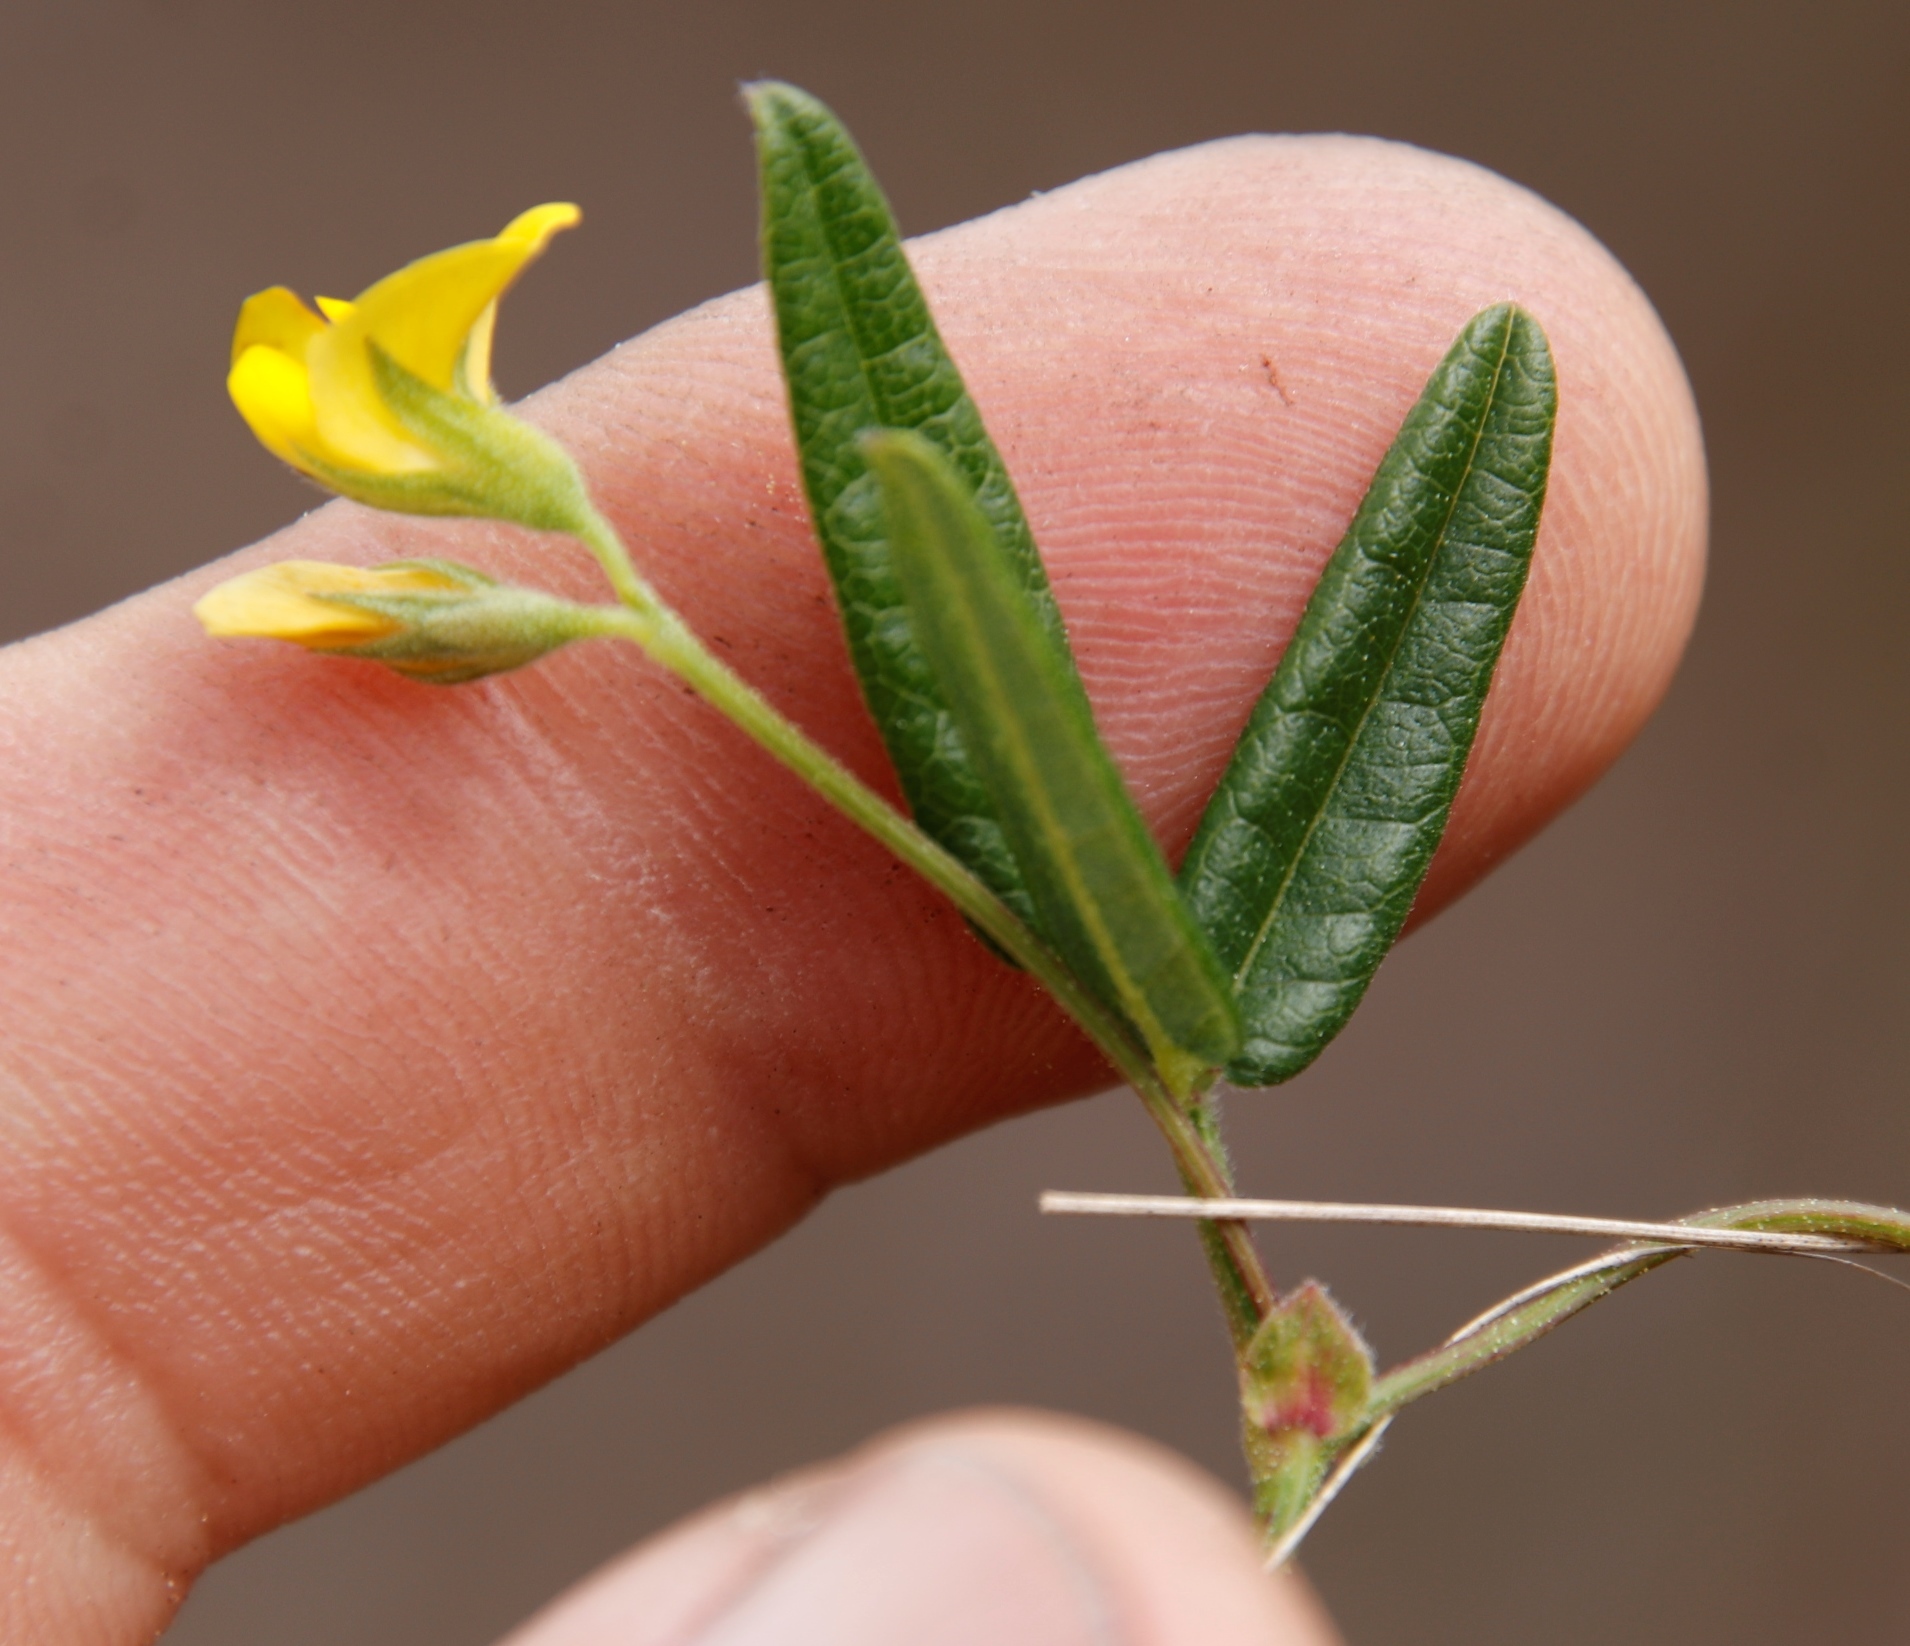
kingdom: Plantae
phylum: Tracheophyta
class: Magnoliopsida
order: Fabales
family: Fabaceae
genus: Rhynchosia
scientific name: Rhynchosia leucoscias
